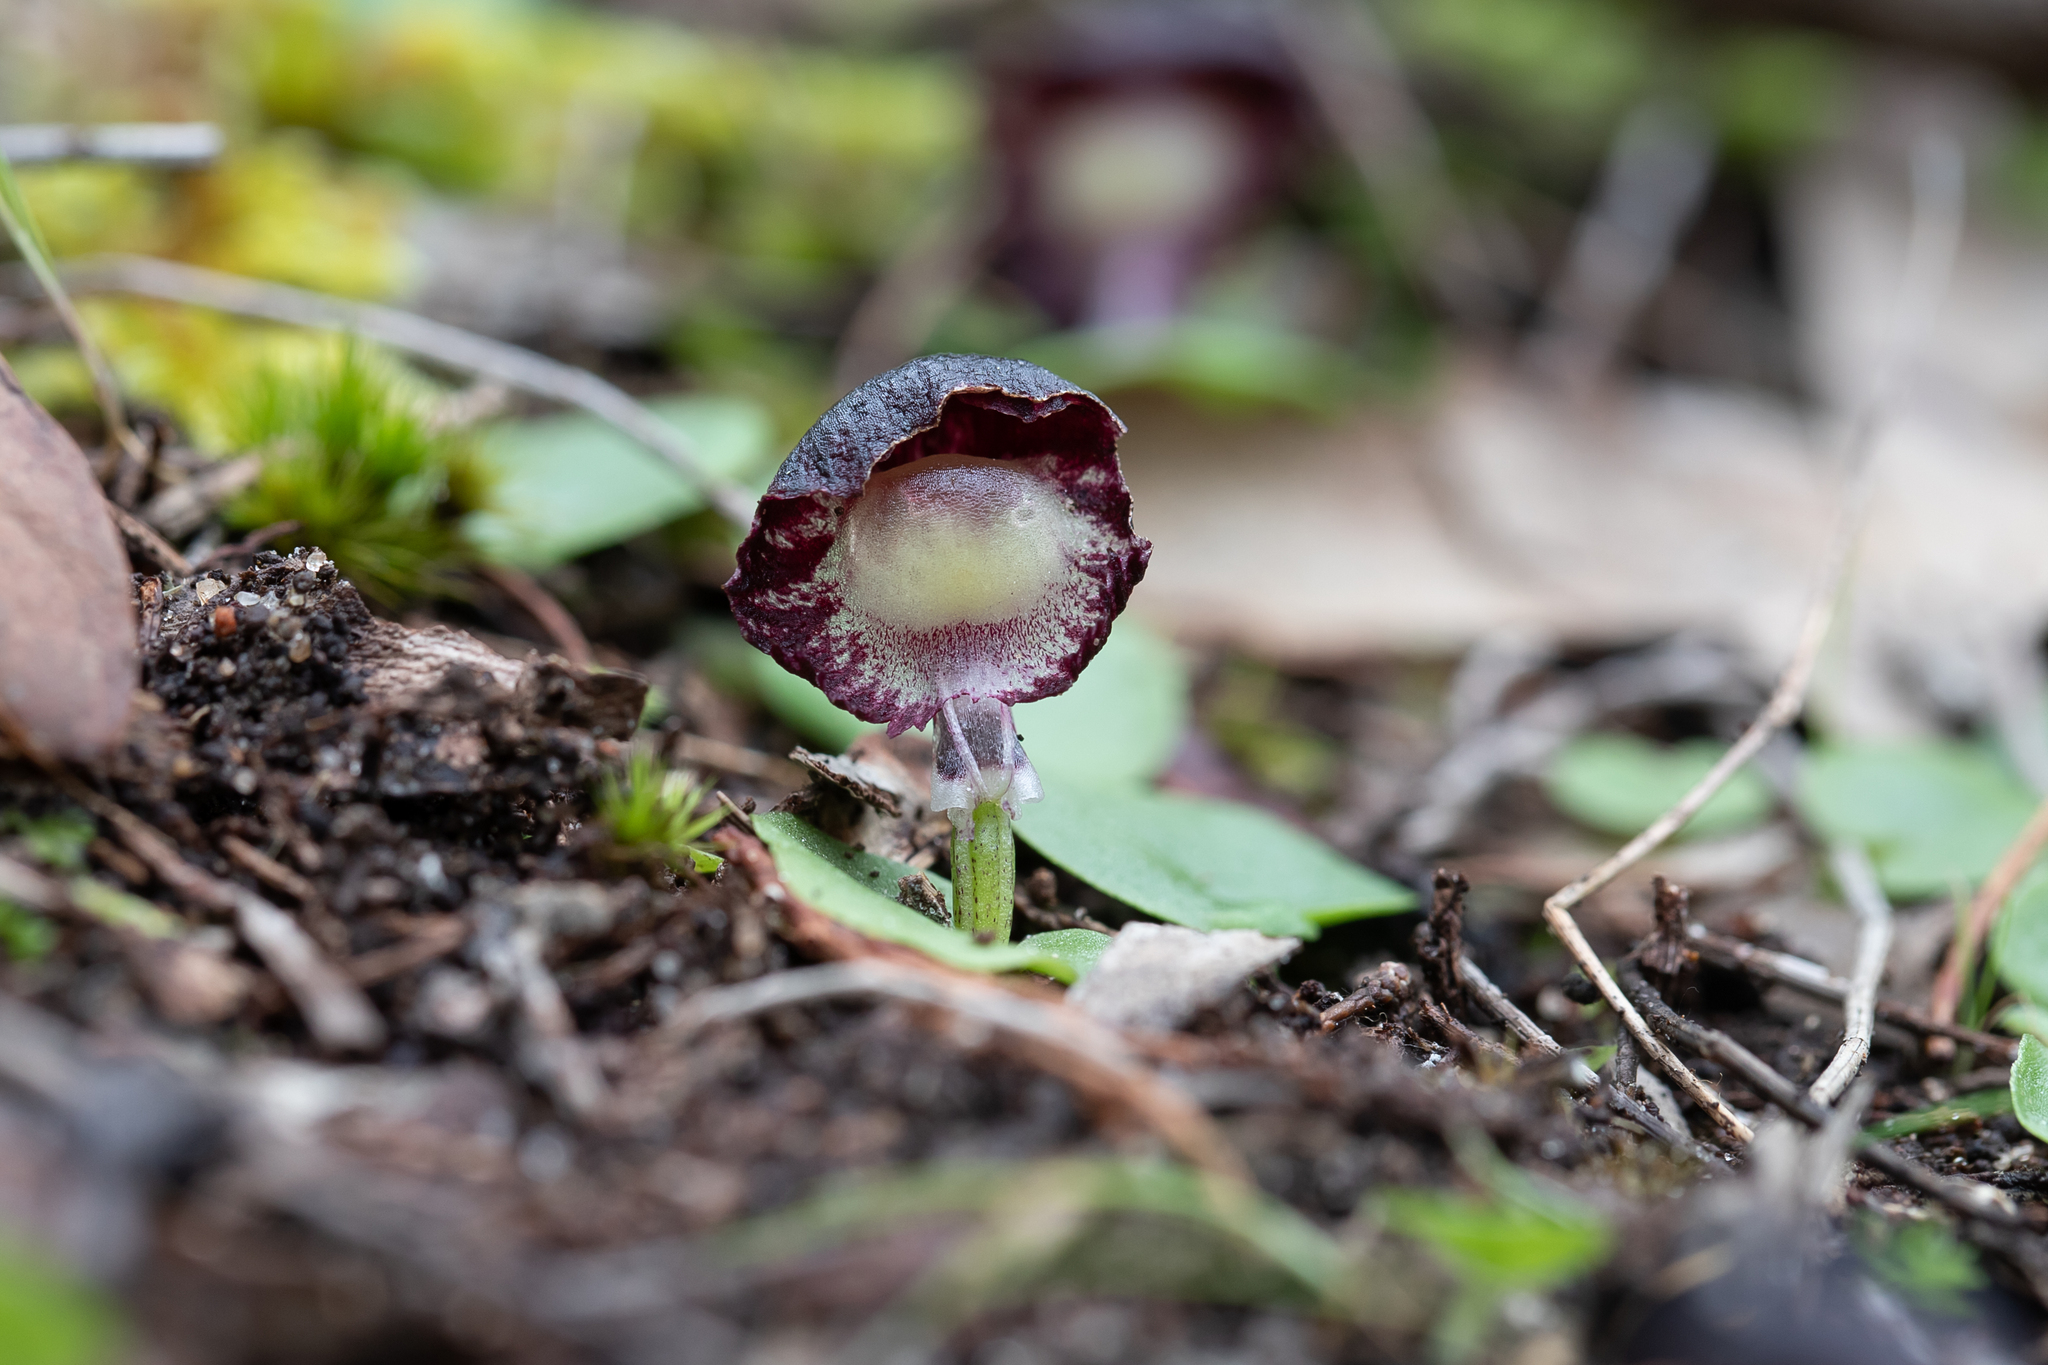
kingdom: Plantae
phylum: Tracheophyta
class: Liliopsida
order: Asparagales
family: Orchidaceae
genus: Corybas
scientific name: Corybas diemenicus
